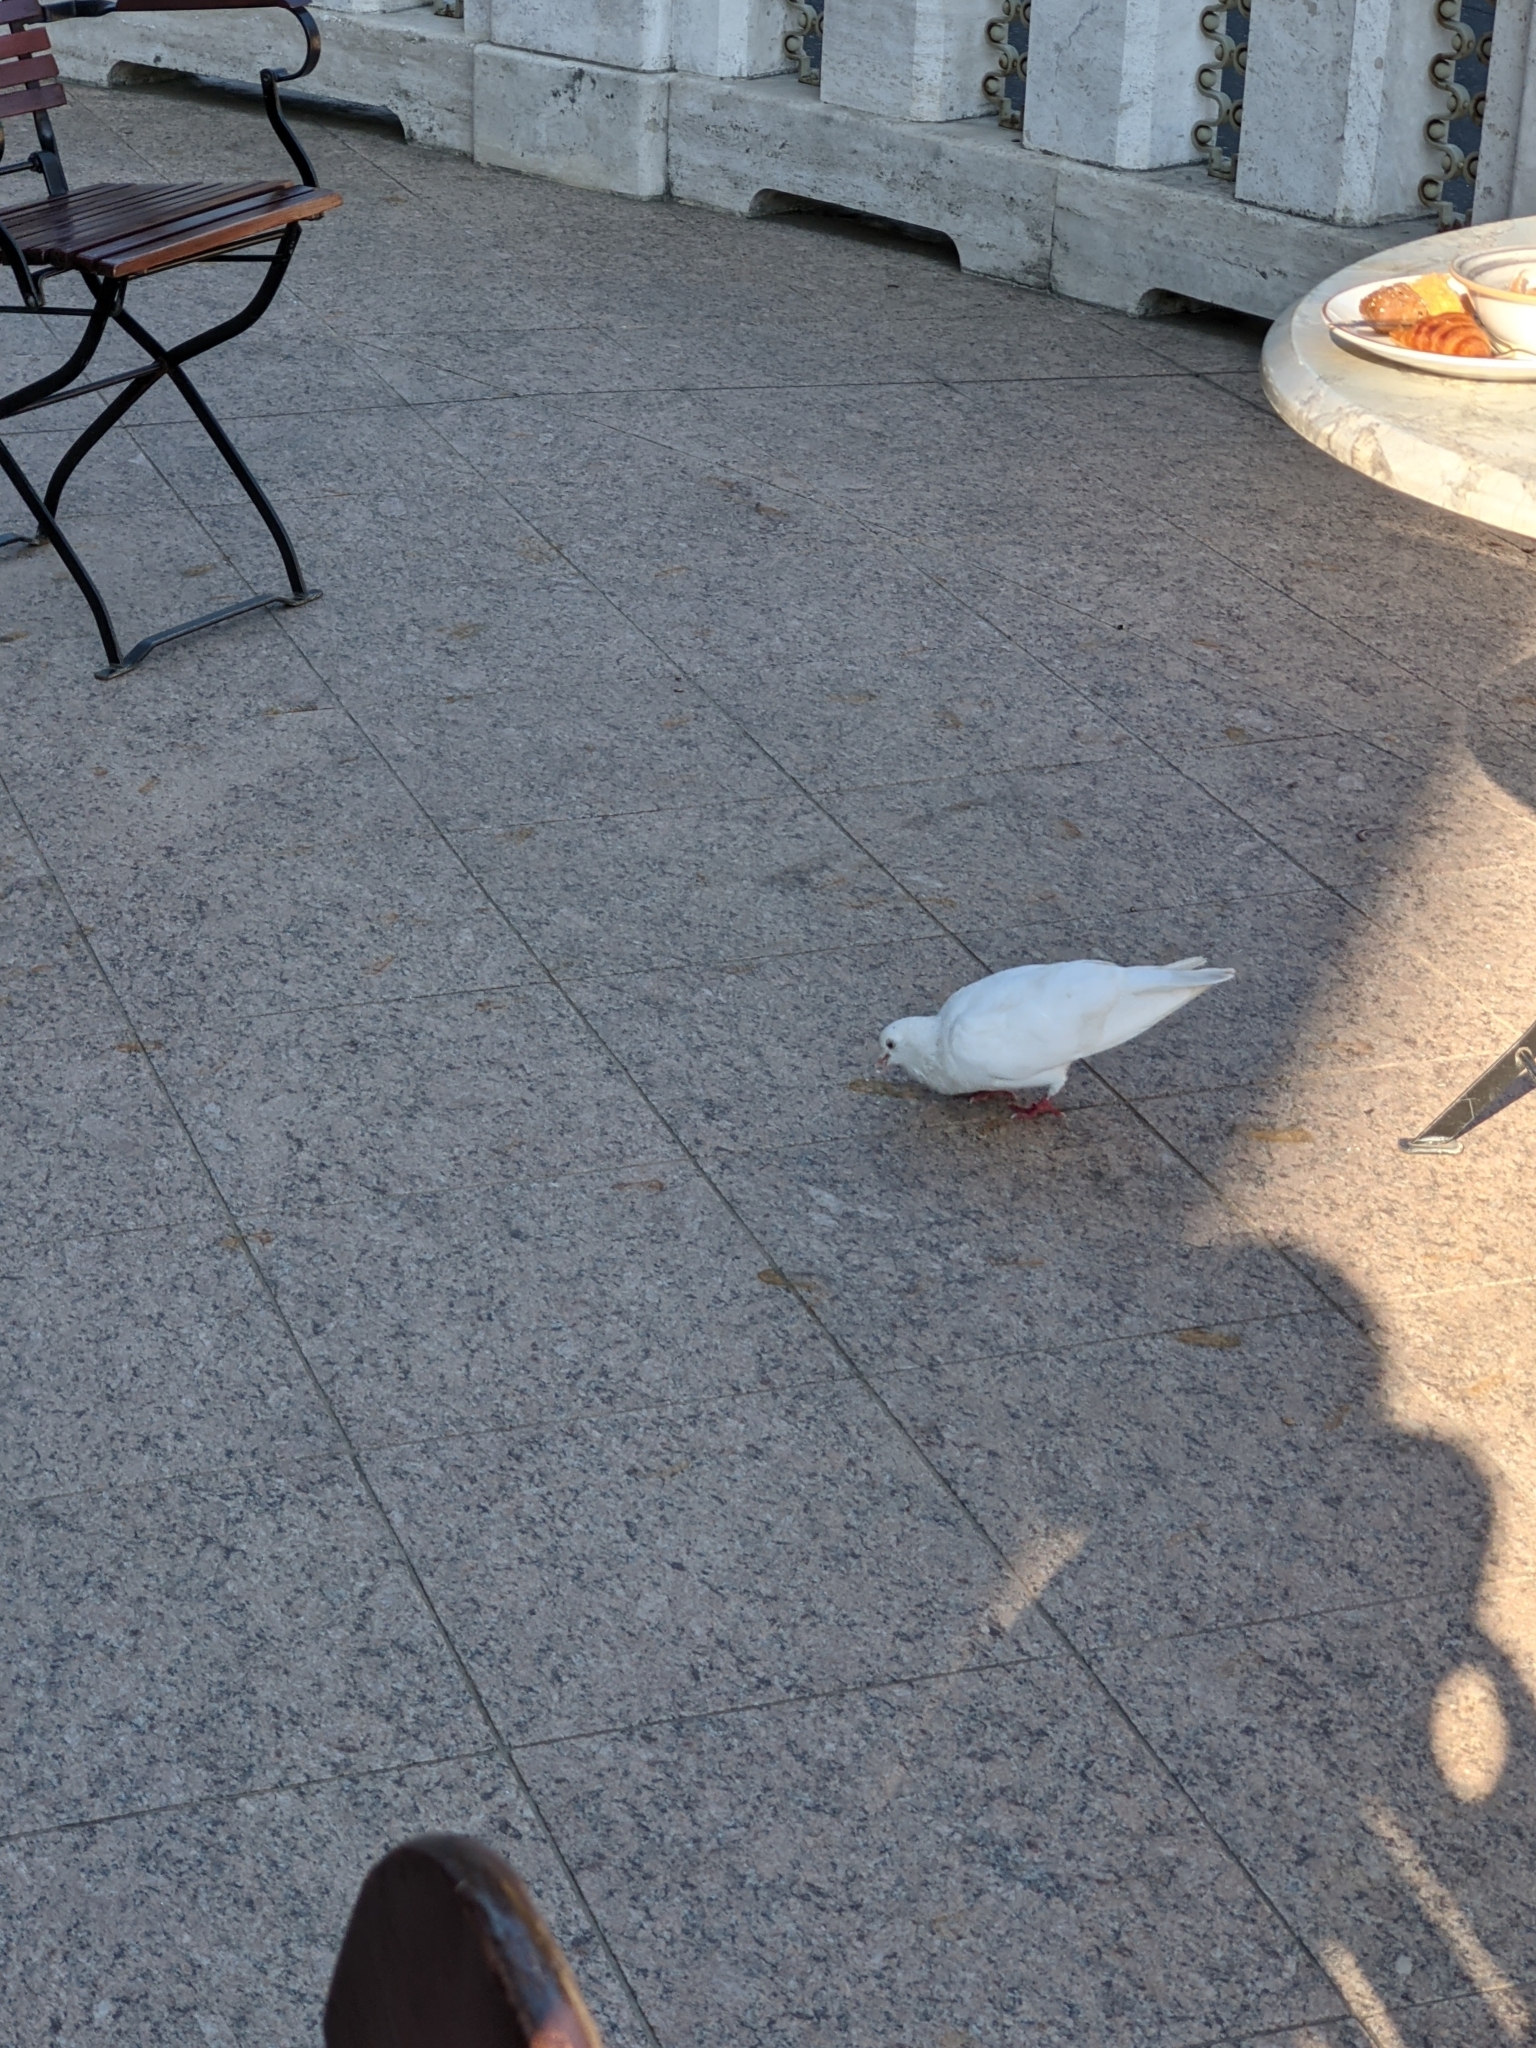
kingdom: Animalia
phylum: Chordata
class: Aves
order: Columbiformes
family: Columbidae
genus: Columba
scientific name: Columba livia
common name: Rock pigeon
